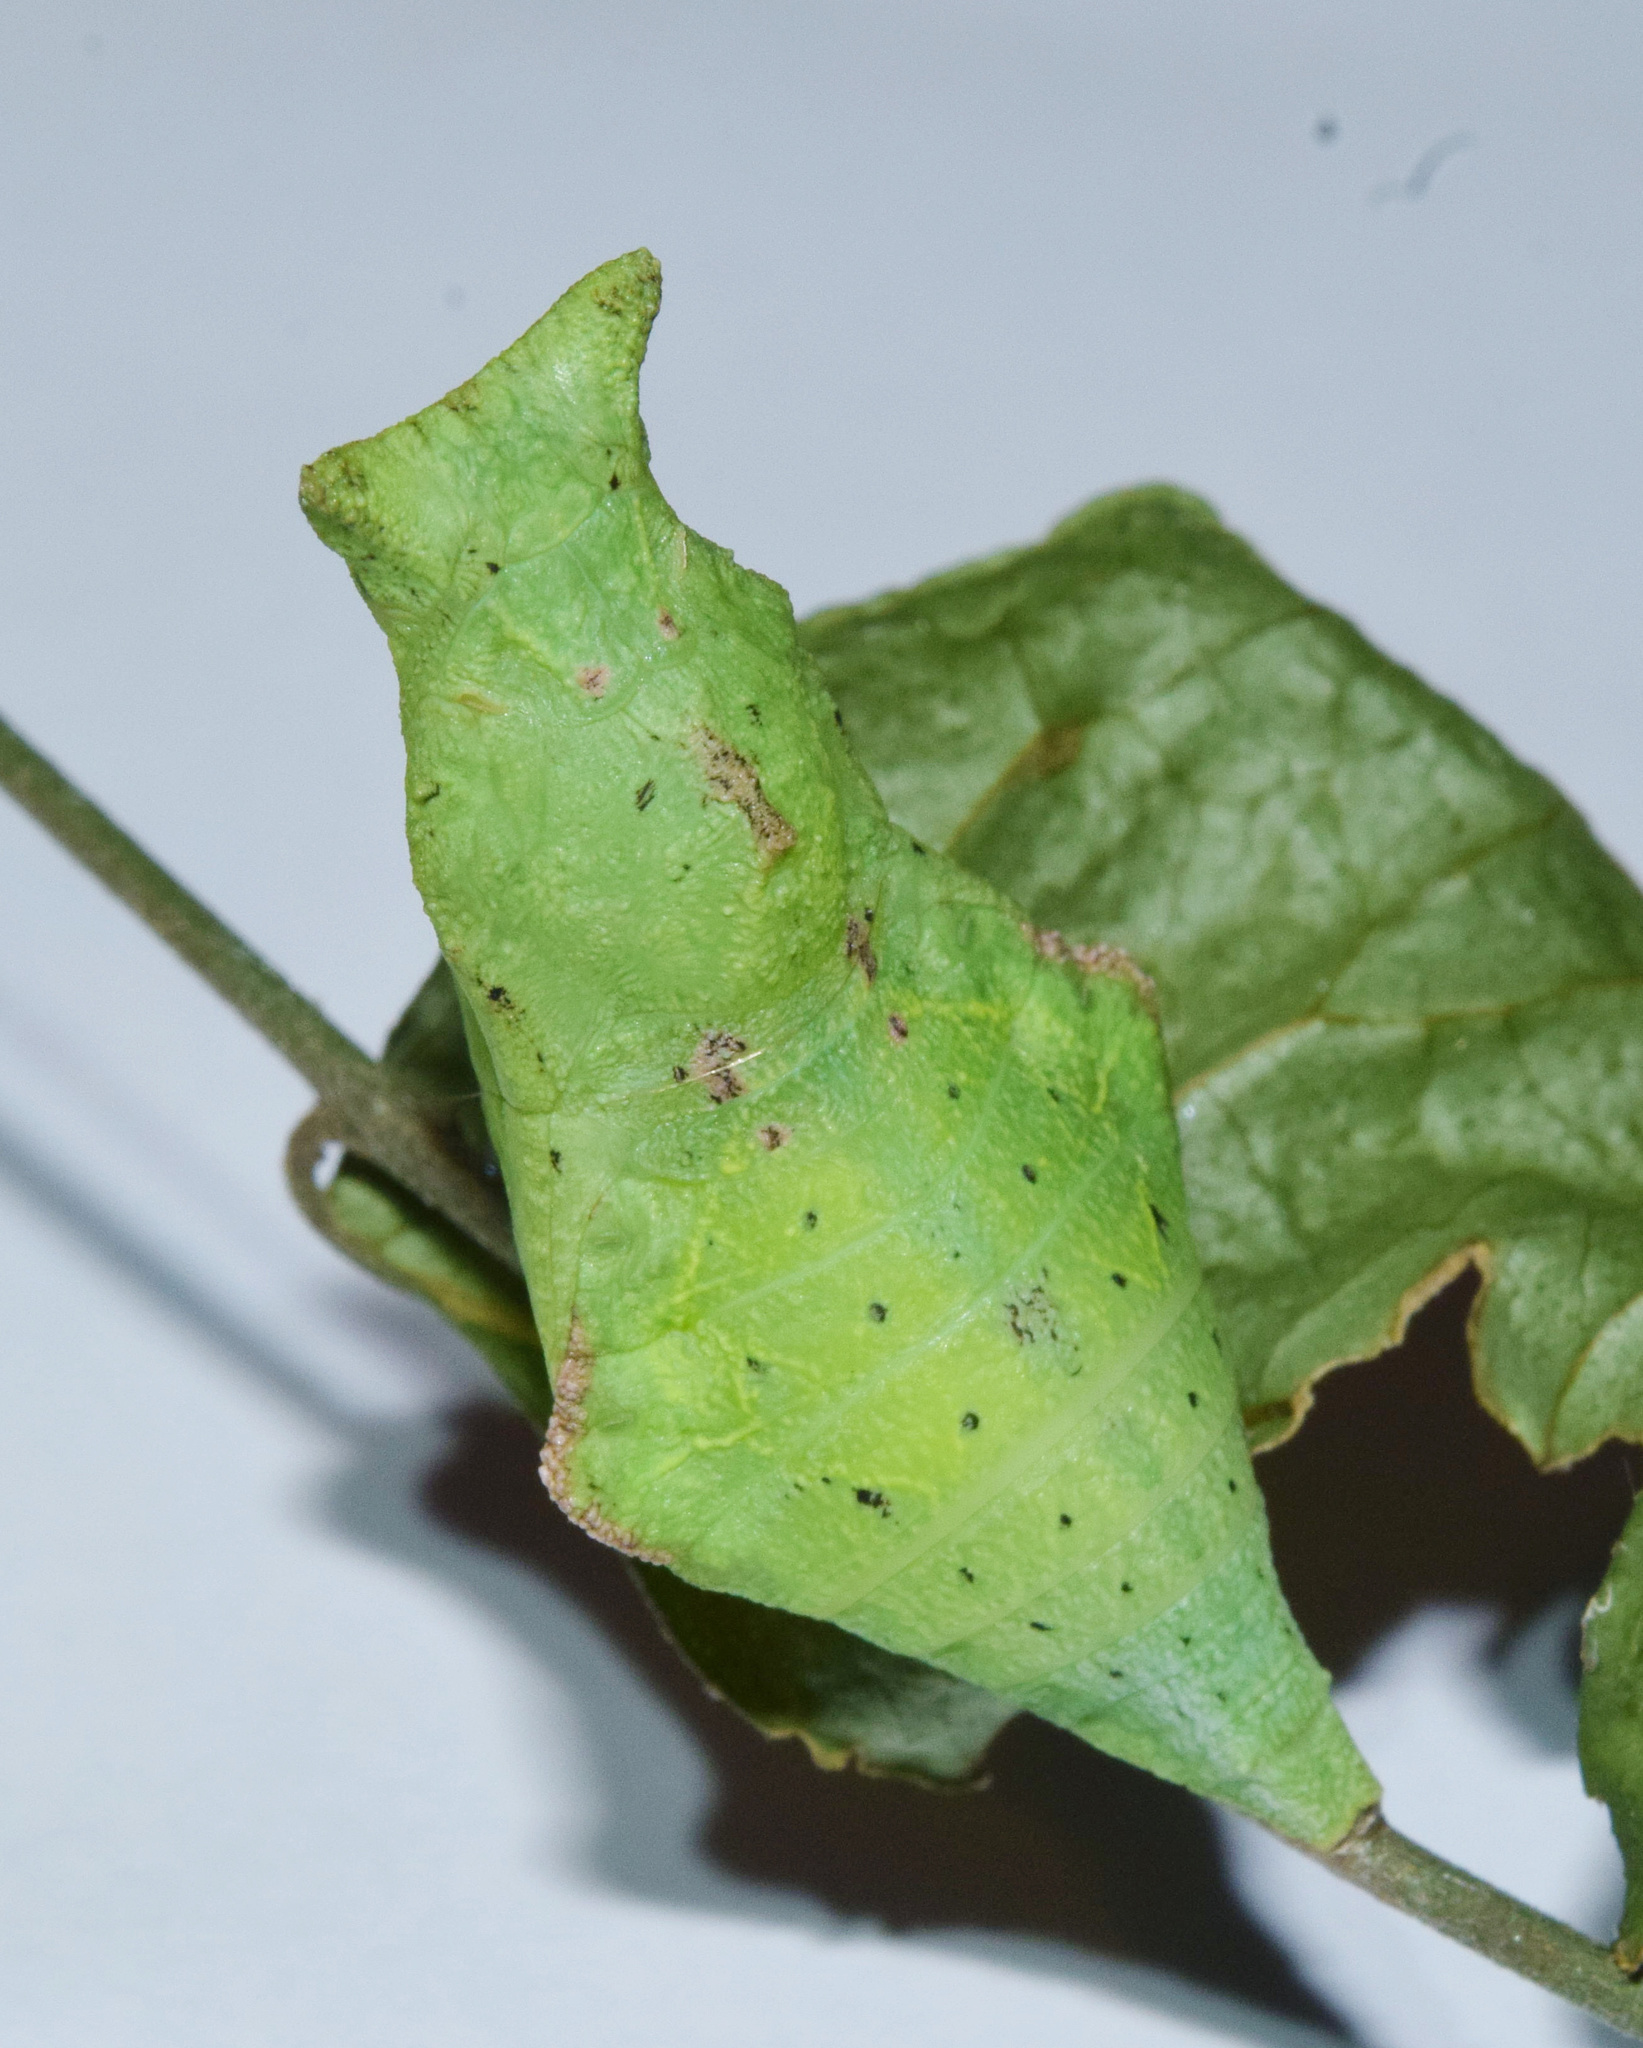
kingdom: Animalia
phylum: Arthropoda
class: Insecta
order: Lepidoptera
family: Papilionidae
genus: Papilio
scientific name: Papilio nireus
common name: Greenbanded swallowtail
